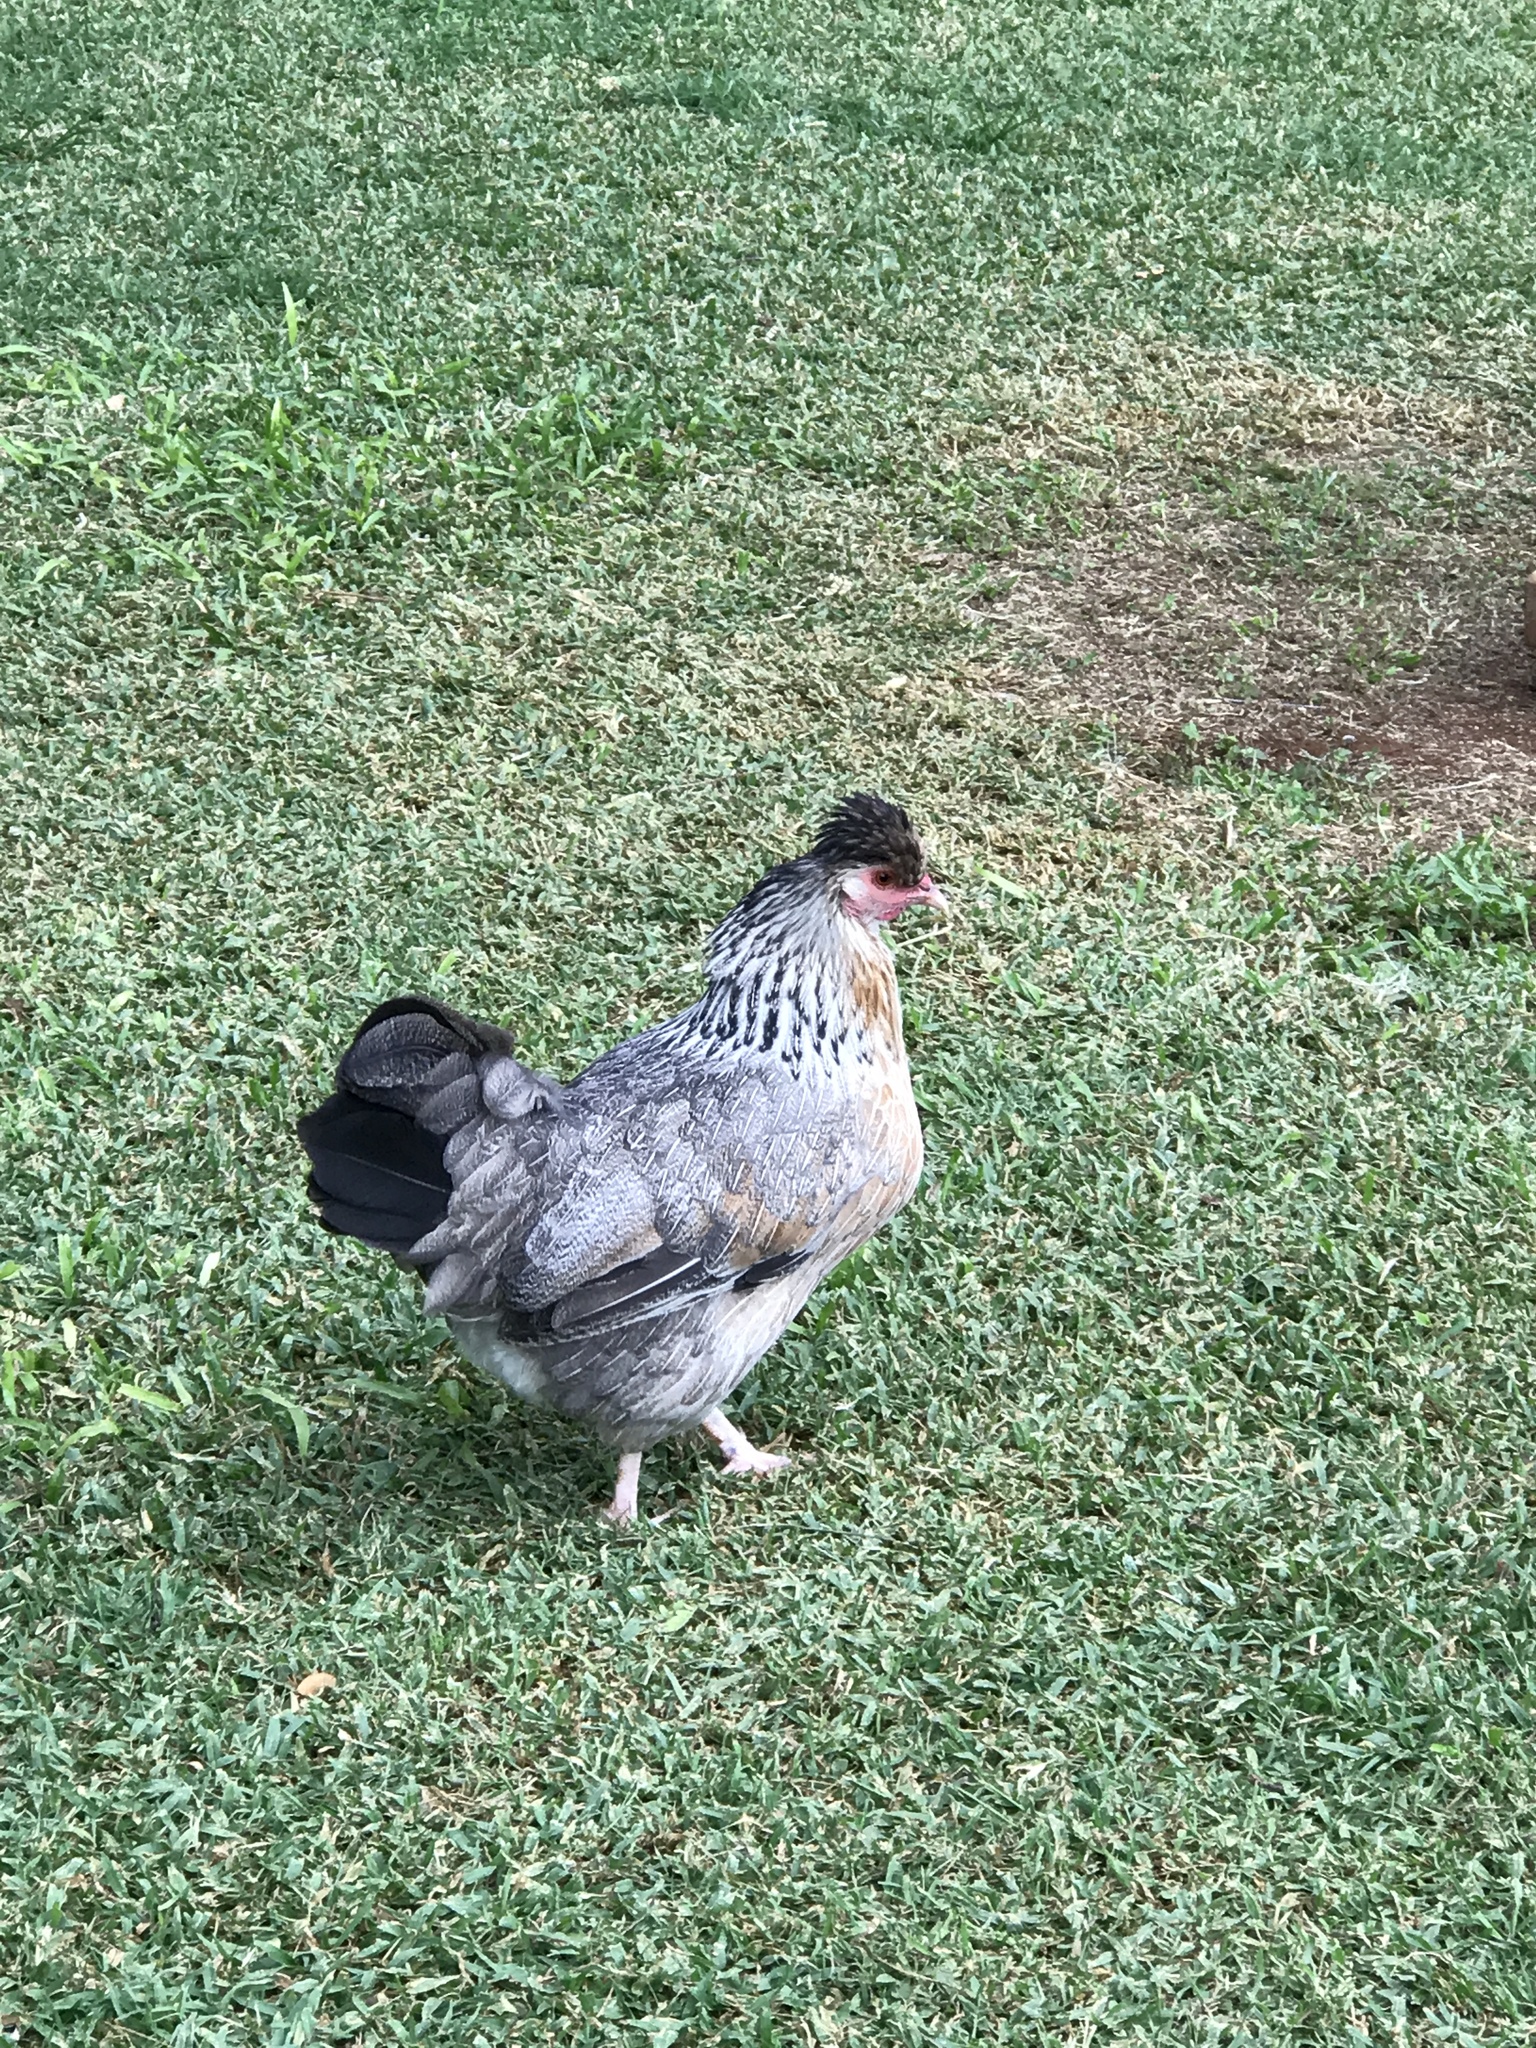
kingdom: Animalia
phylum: Chordata
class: Aves
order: Galliformes
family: Phasianidae
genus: Gallus
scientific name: Gallus gallus
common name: Red junglefowl
